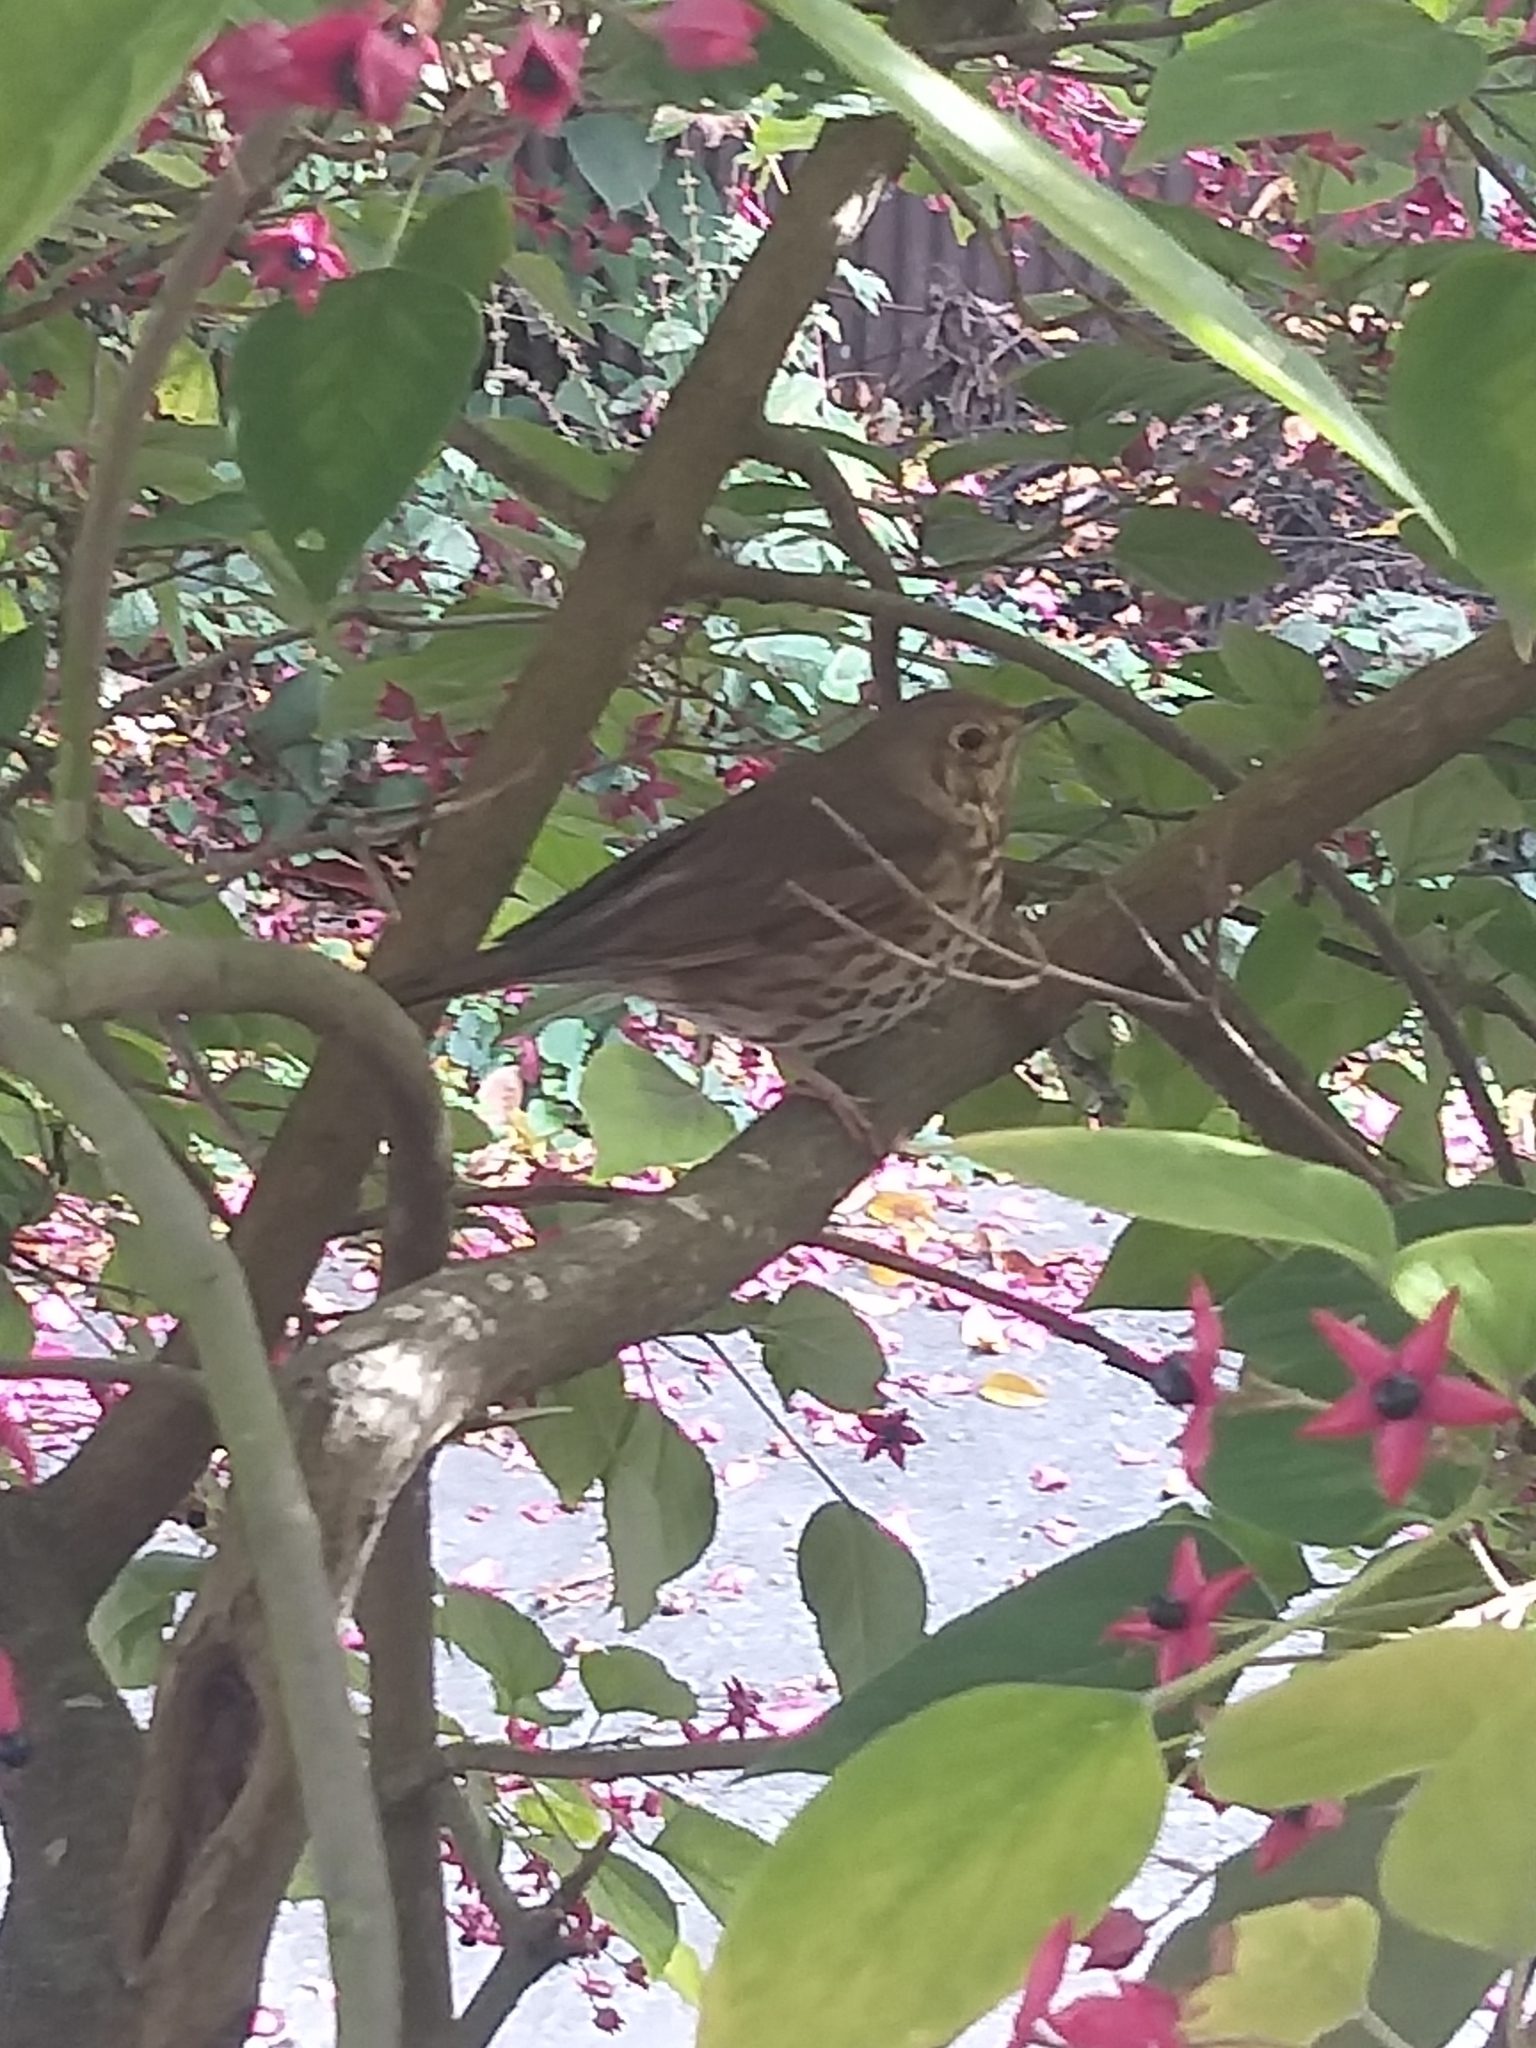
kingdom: Animalia
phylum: Chordata
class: Aves
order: Passeriformes
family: Turdidae
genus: Turdus
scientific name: Turdus philomelos
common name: Song thrush
